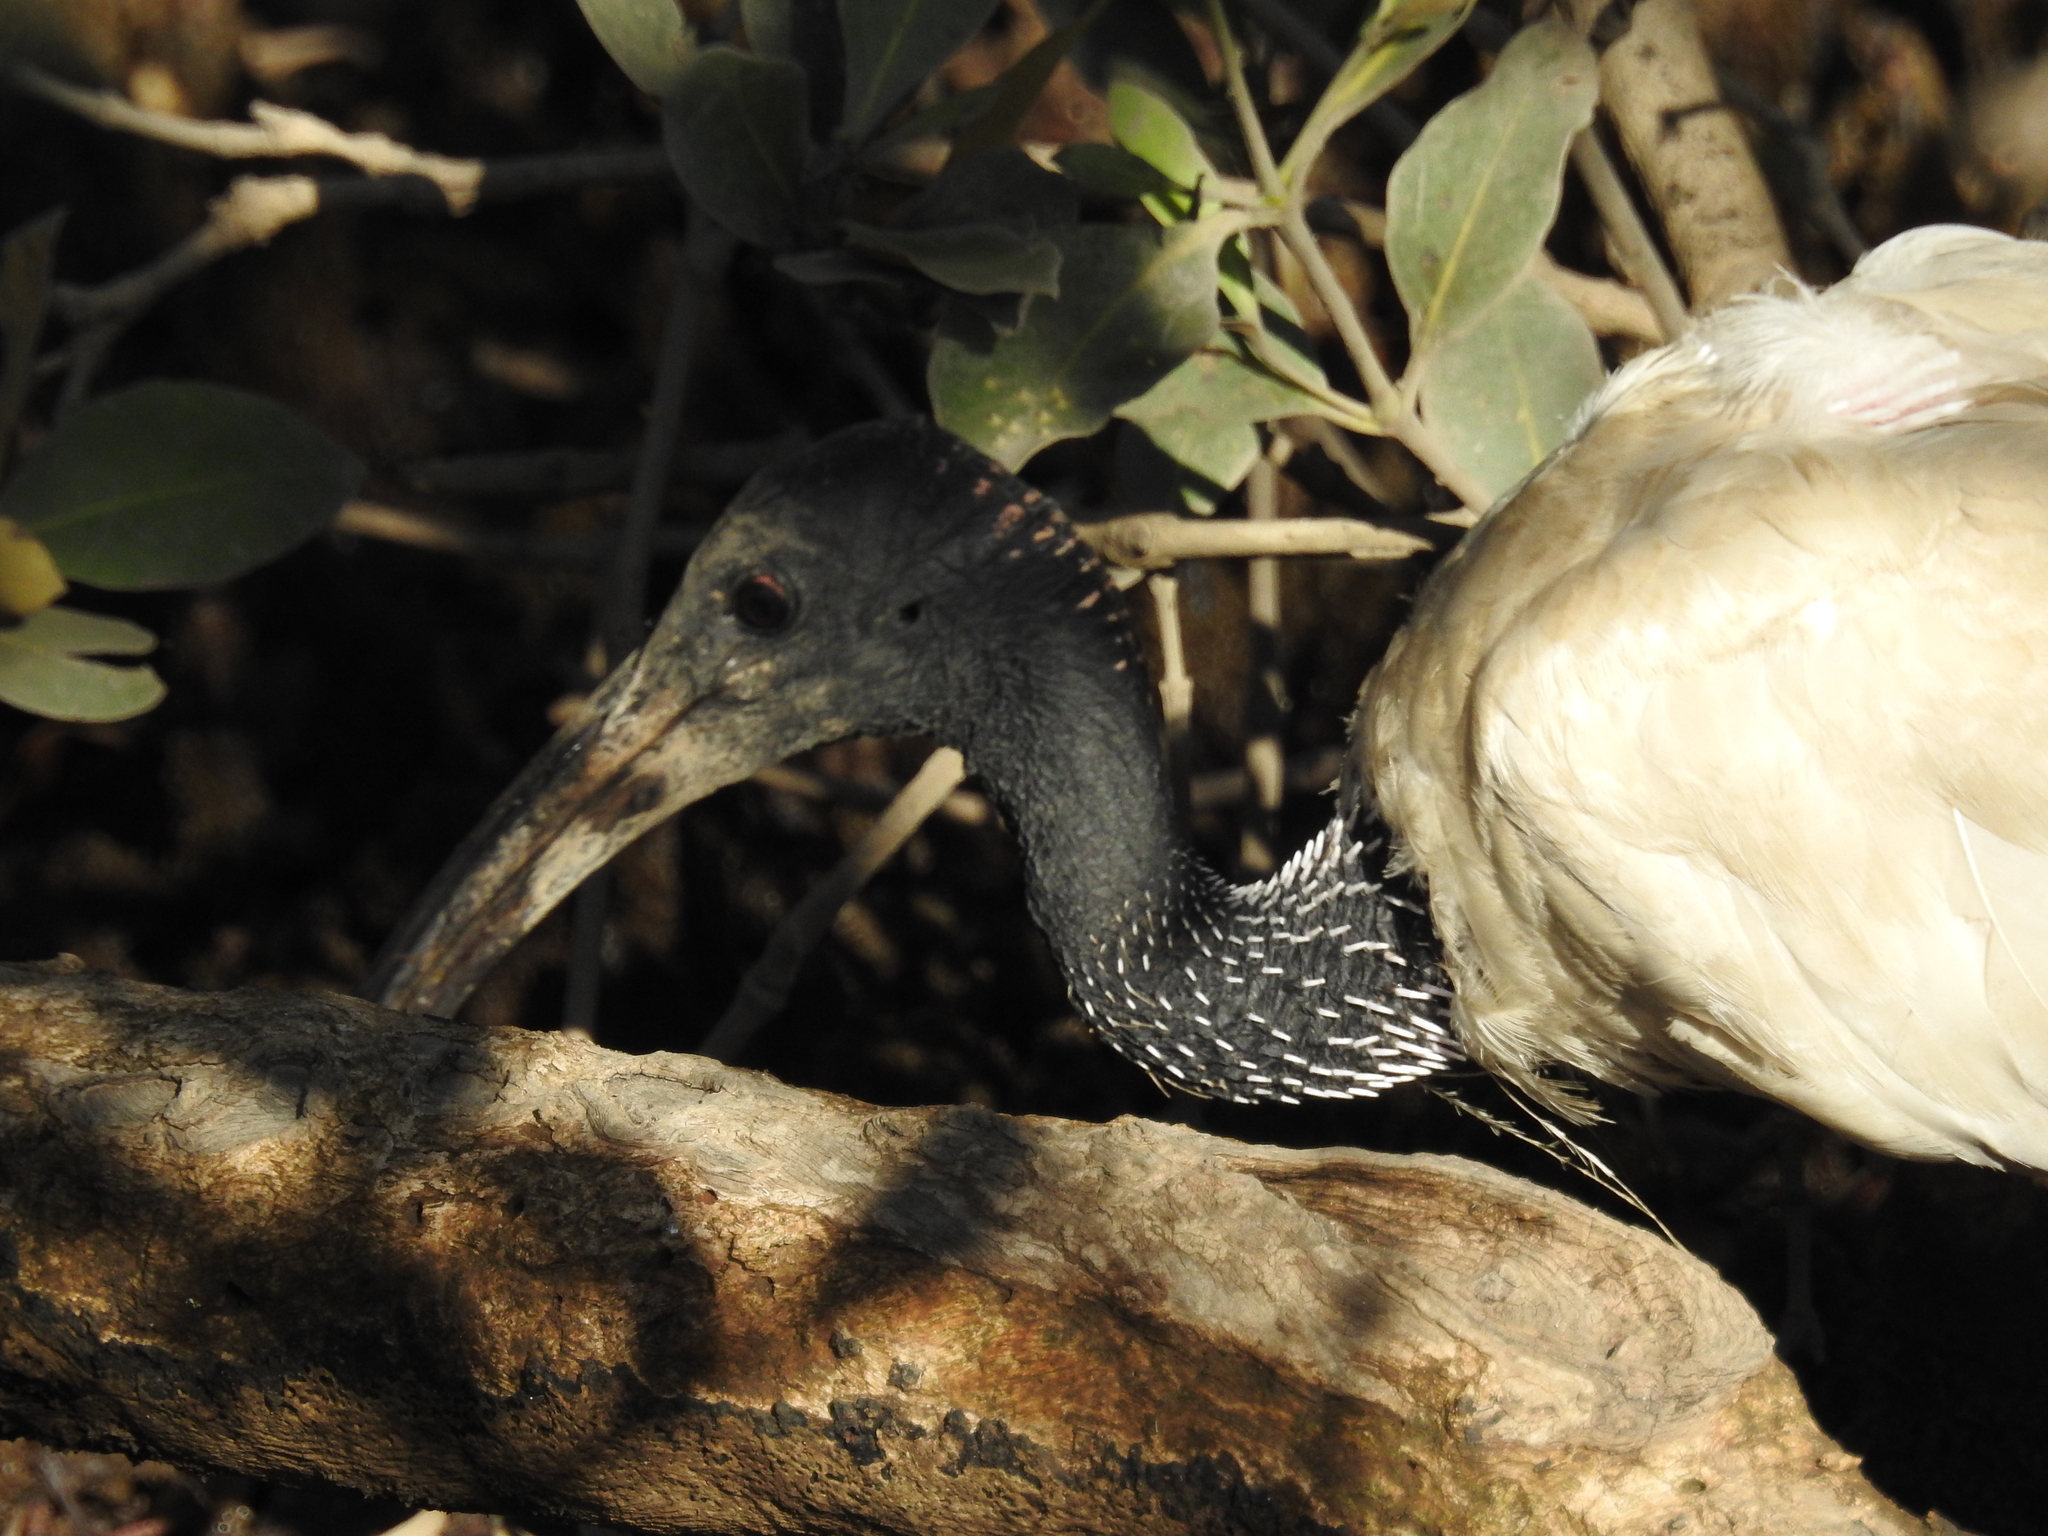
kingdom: Animalia
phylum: Chordata
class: Aves
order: Pelecaniformes
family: Threskiornithidae
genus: Threskiornis
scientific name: Threskiornis molucca
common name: Australian white ibis
